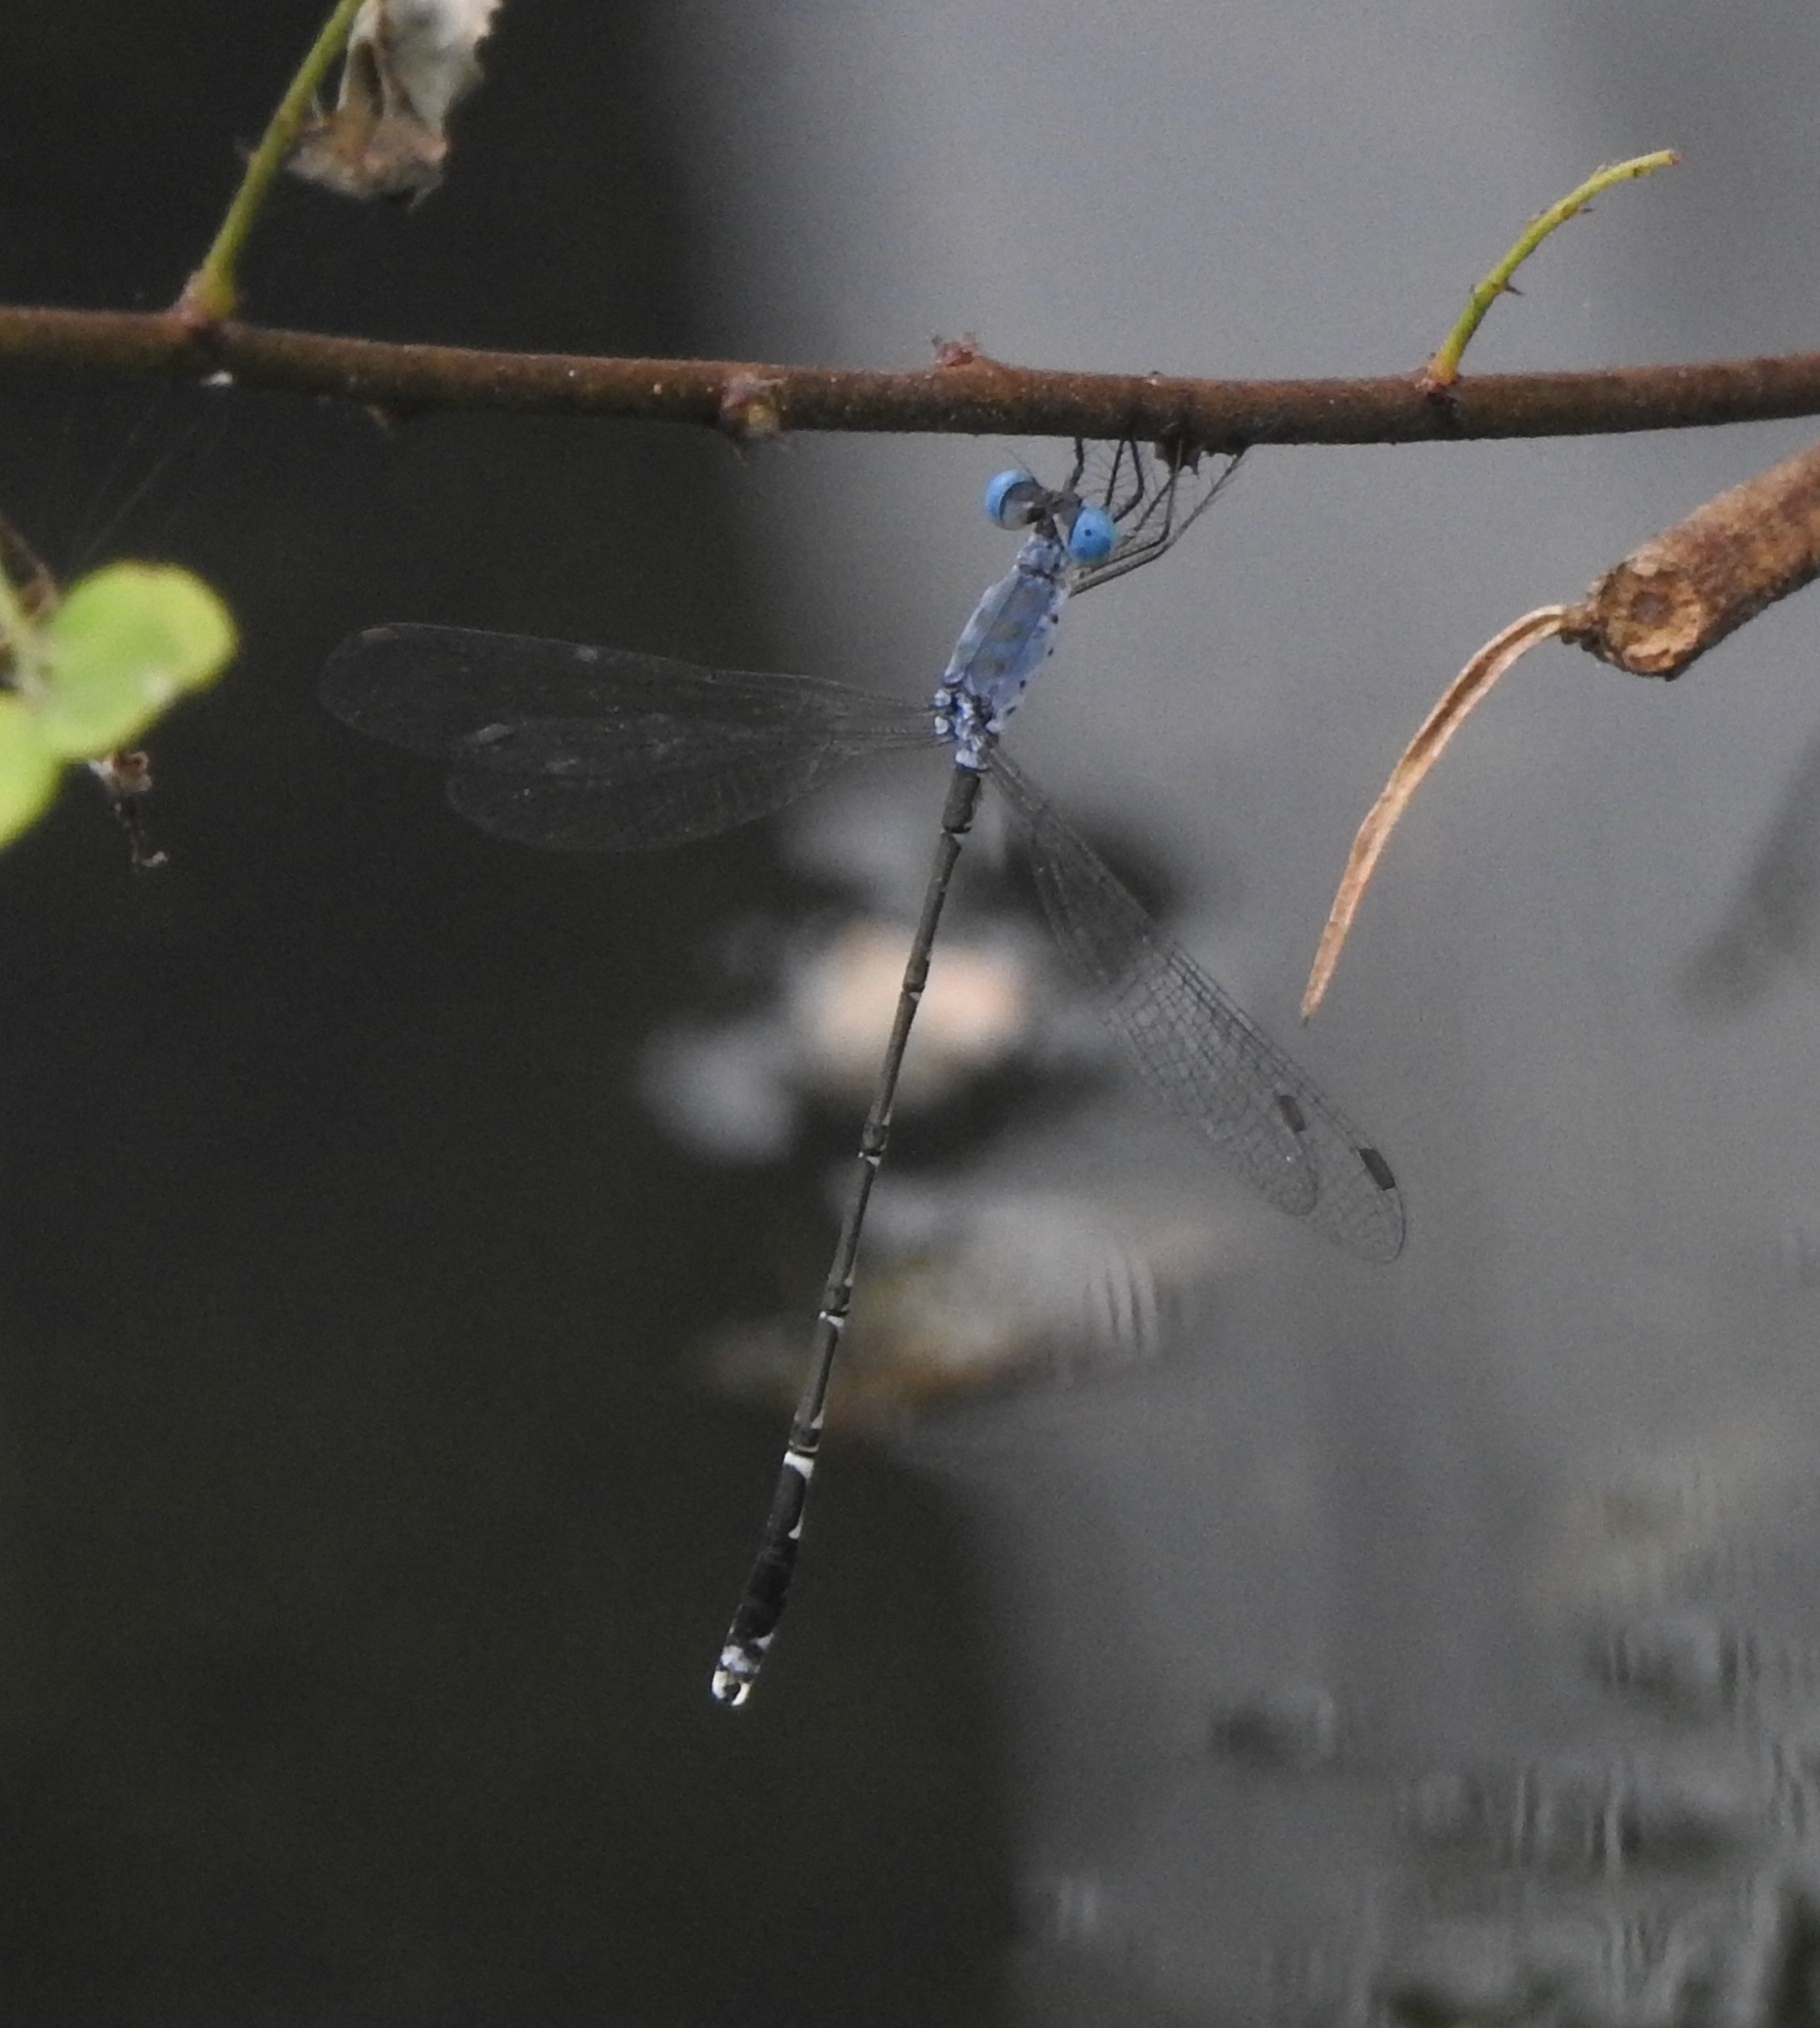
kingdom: Animalia
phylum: Arthropoda
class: Insecta
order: Odonata
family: Lestidae
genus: Lestes
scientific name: Lestes praemorsus
